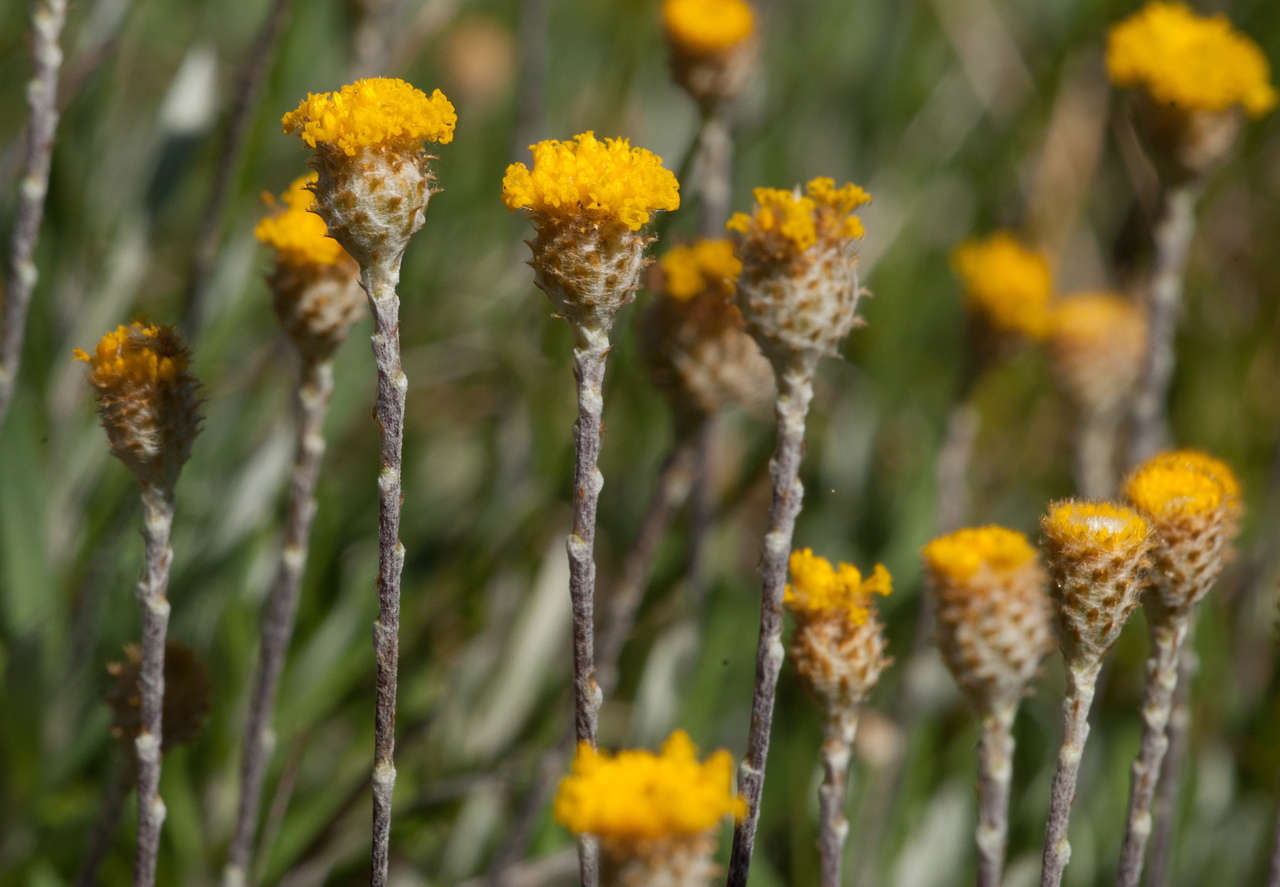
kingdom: Plantae
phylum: Tracheophyta
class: Magnoliopsida
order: Asterales
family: Asteraceae
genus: Leptorhynchos
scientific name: Leptorhynchos squamatus
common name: Scaly-buttons
